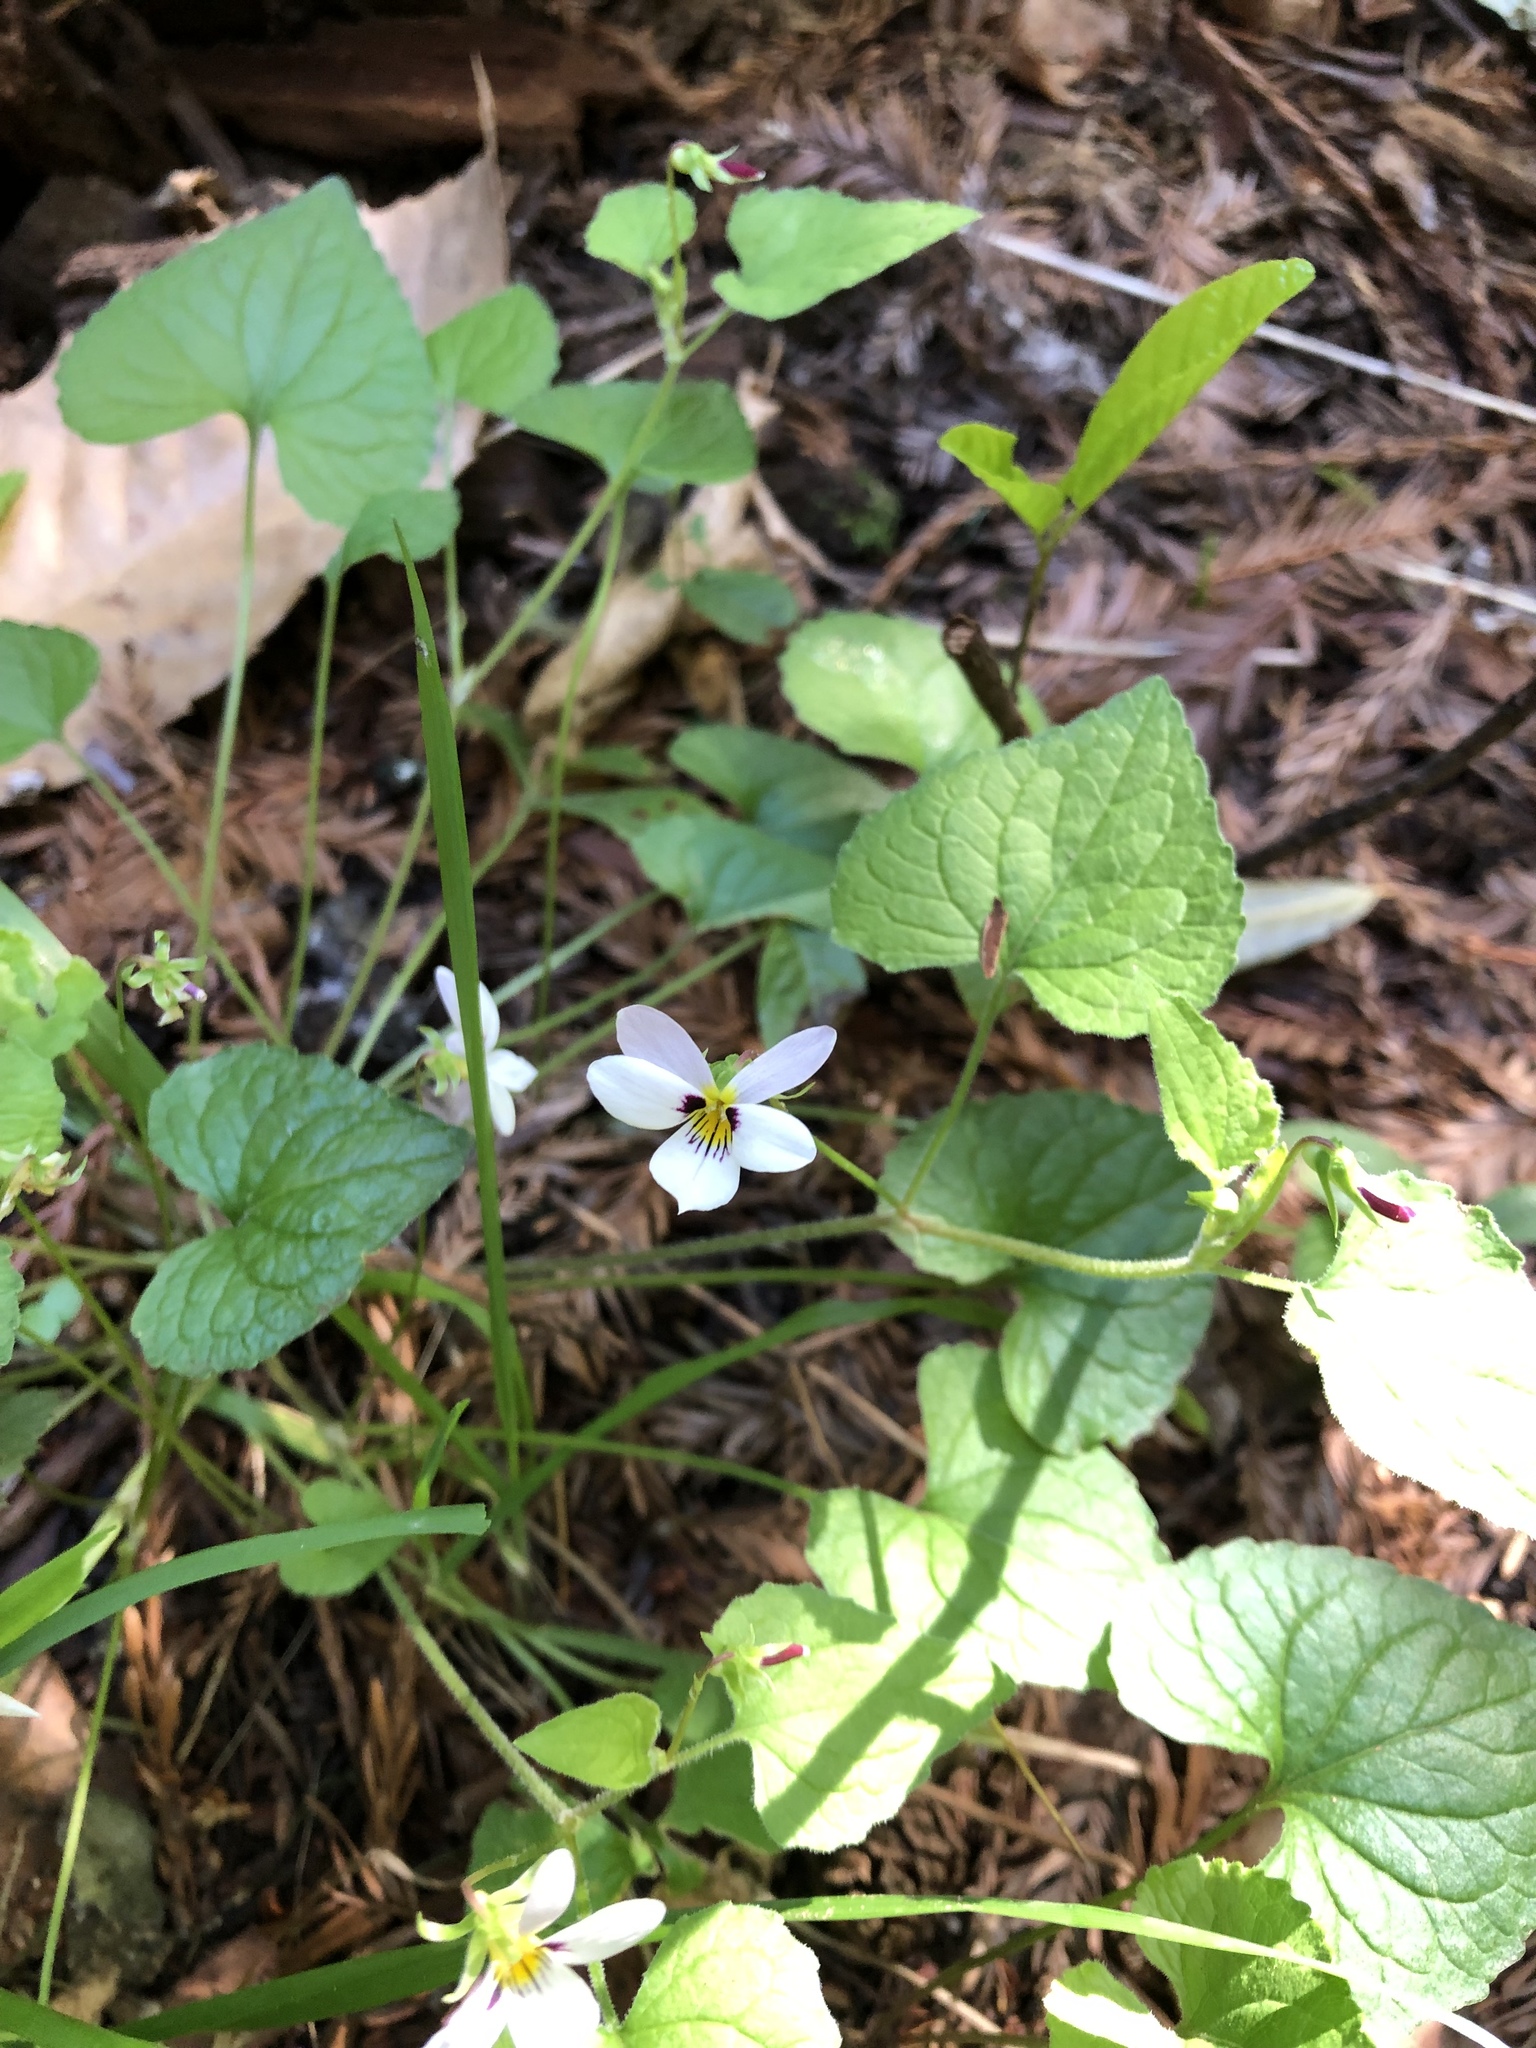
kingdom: Plantae
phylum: Tracheophyta
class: Magnoliopsida
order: Malpighiales
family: Violaceae
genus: Viola
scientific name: Viola ocellata
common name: Western heart's ease
